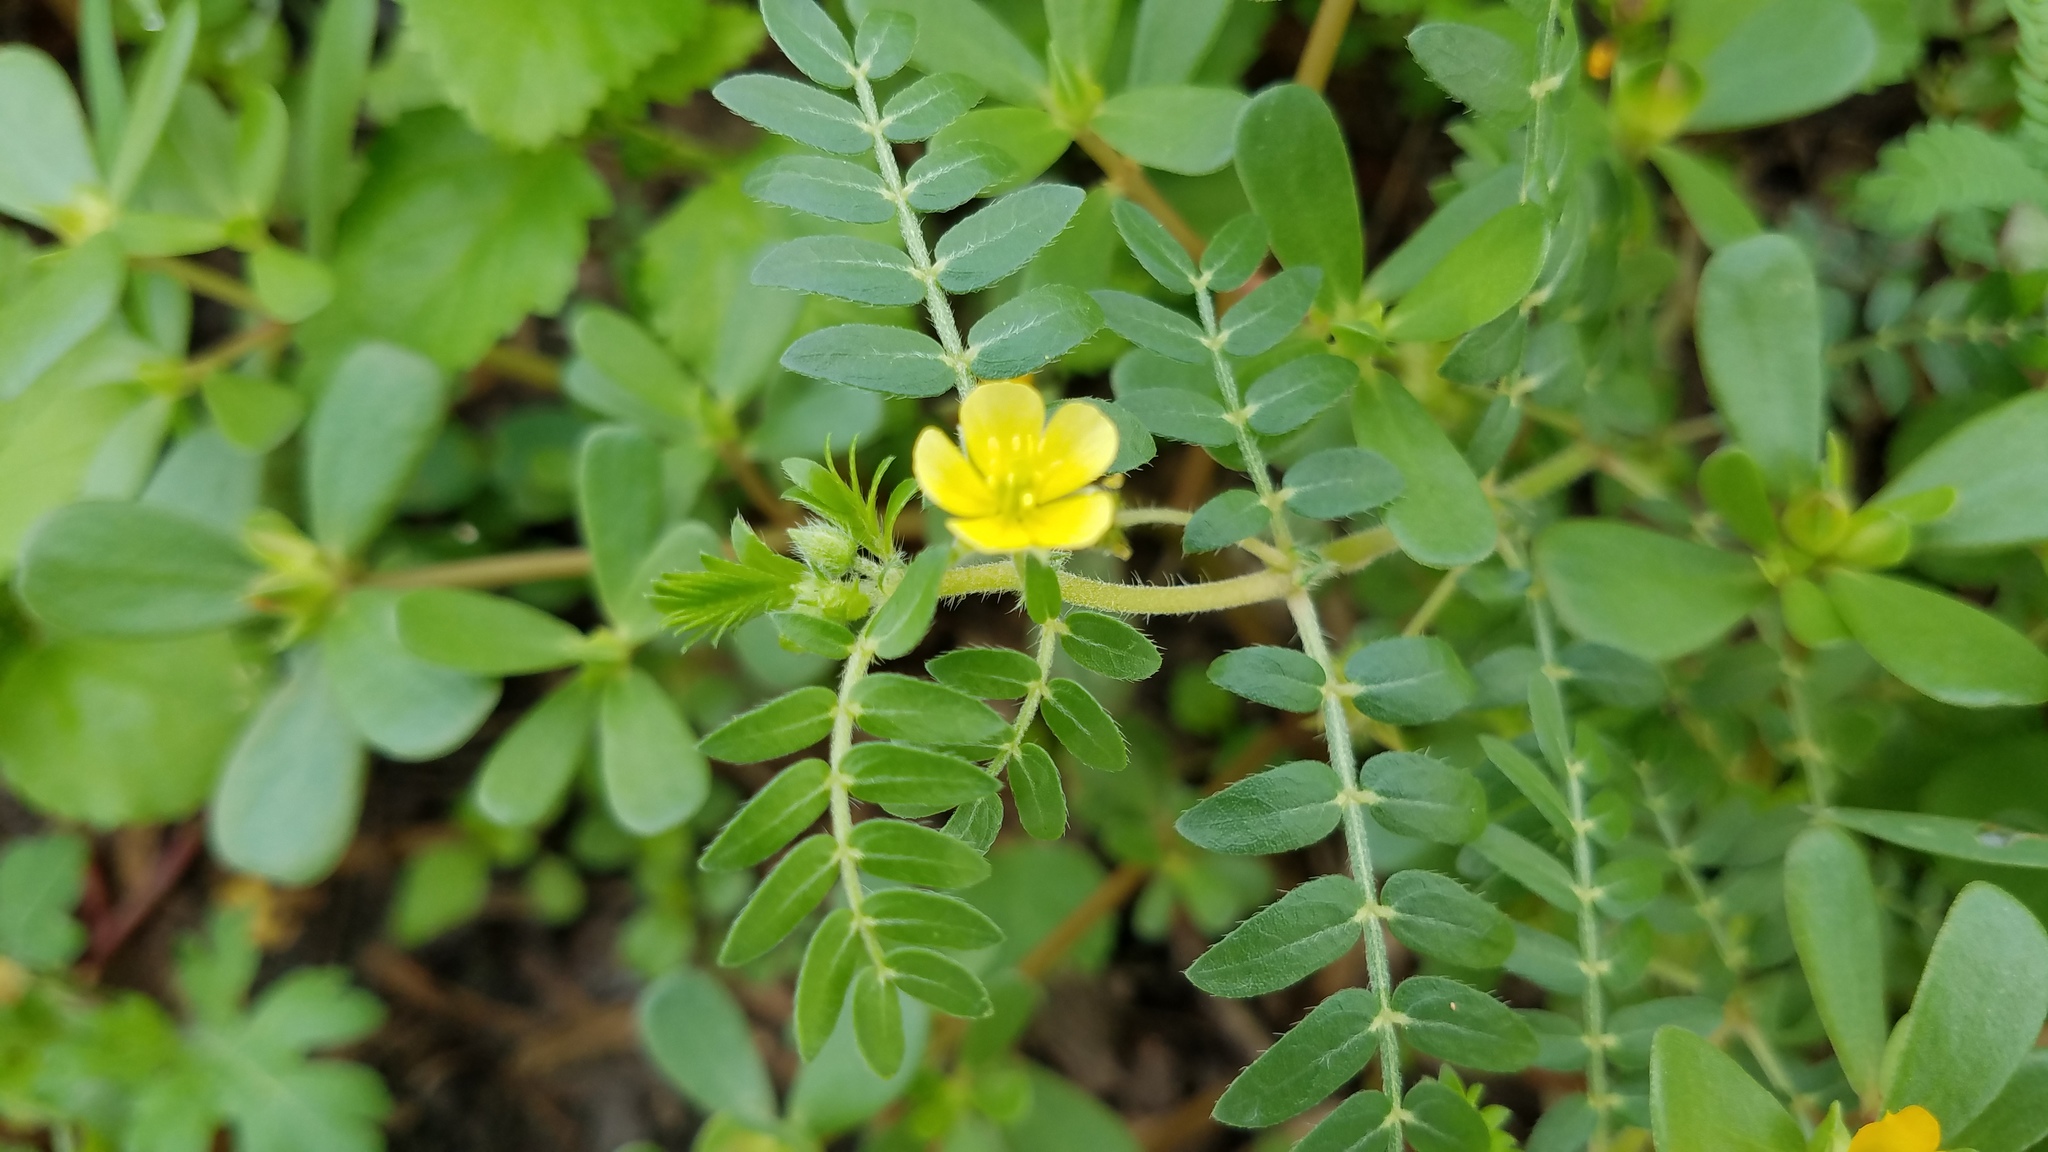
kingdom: Plantae
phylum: Tracheophyta
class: Magnoliopsida
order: Zygophyllales
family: Zygophyllaceae
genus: Tribulus
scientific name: Tribulus terrestris
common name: Puncturevine
